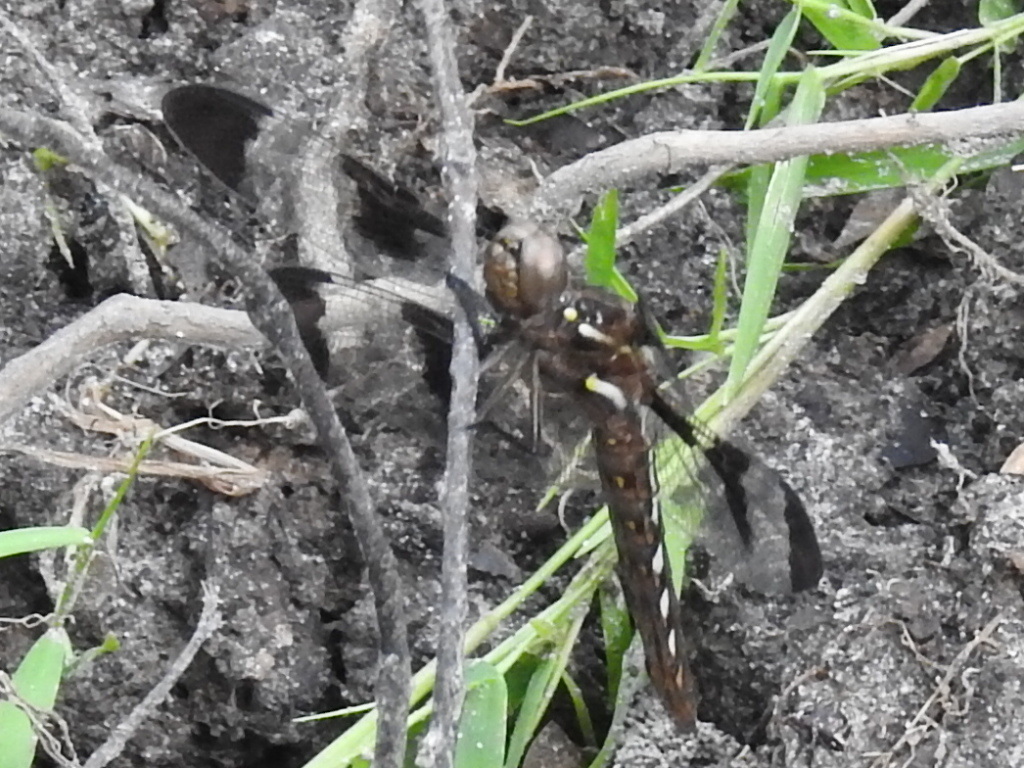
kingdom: Animalia
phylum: Arthropoda
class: Insecta
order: Odonata
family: Libellulidae
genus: Plathemis
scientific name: Plathemis lydia
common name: Common whitetail
